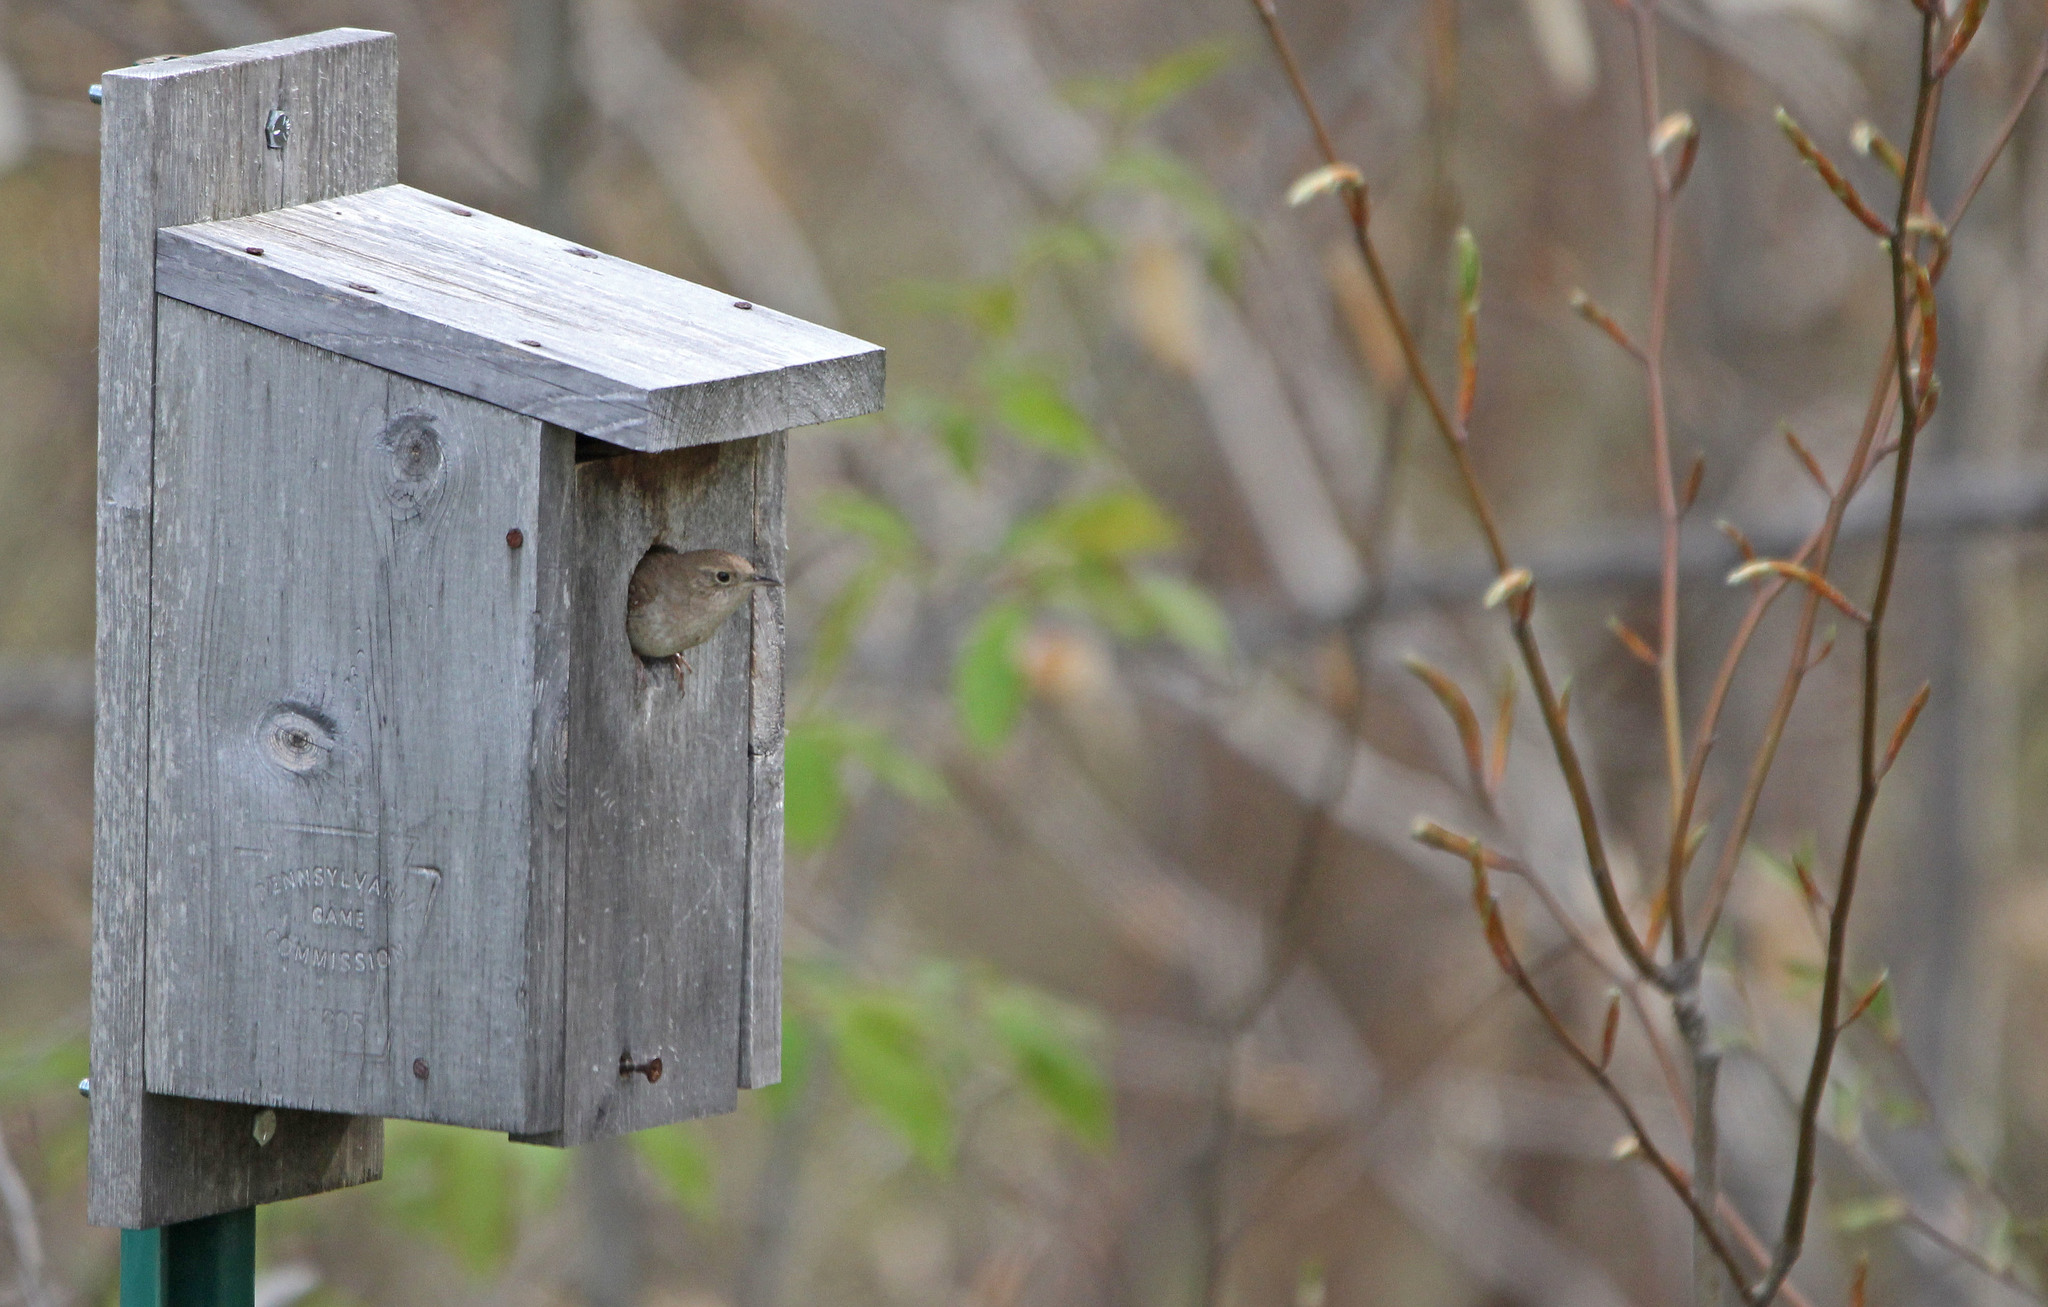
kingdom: Animalia
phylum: Chordata
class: Aves
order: Passeriformes
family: Troglodytidae
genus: Troglodytes
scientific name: Troglodytes aedon
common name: House wren
